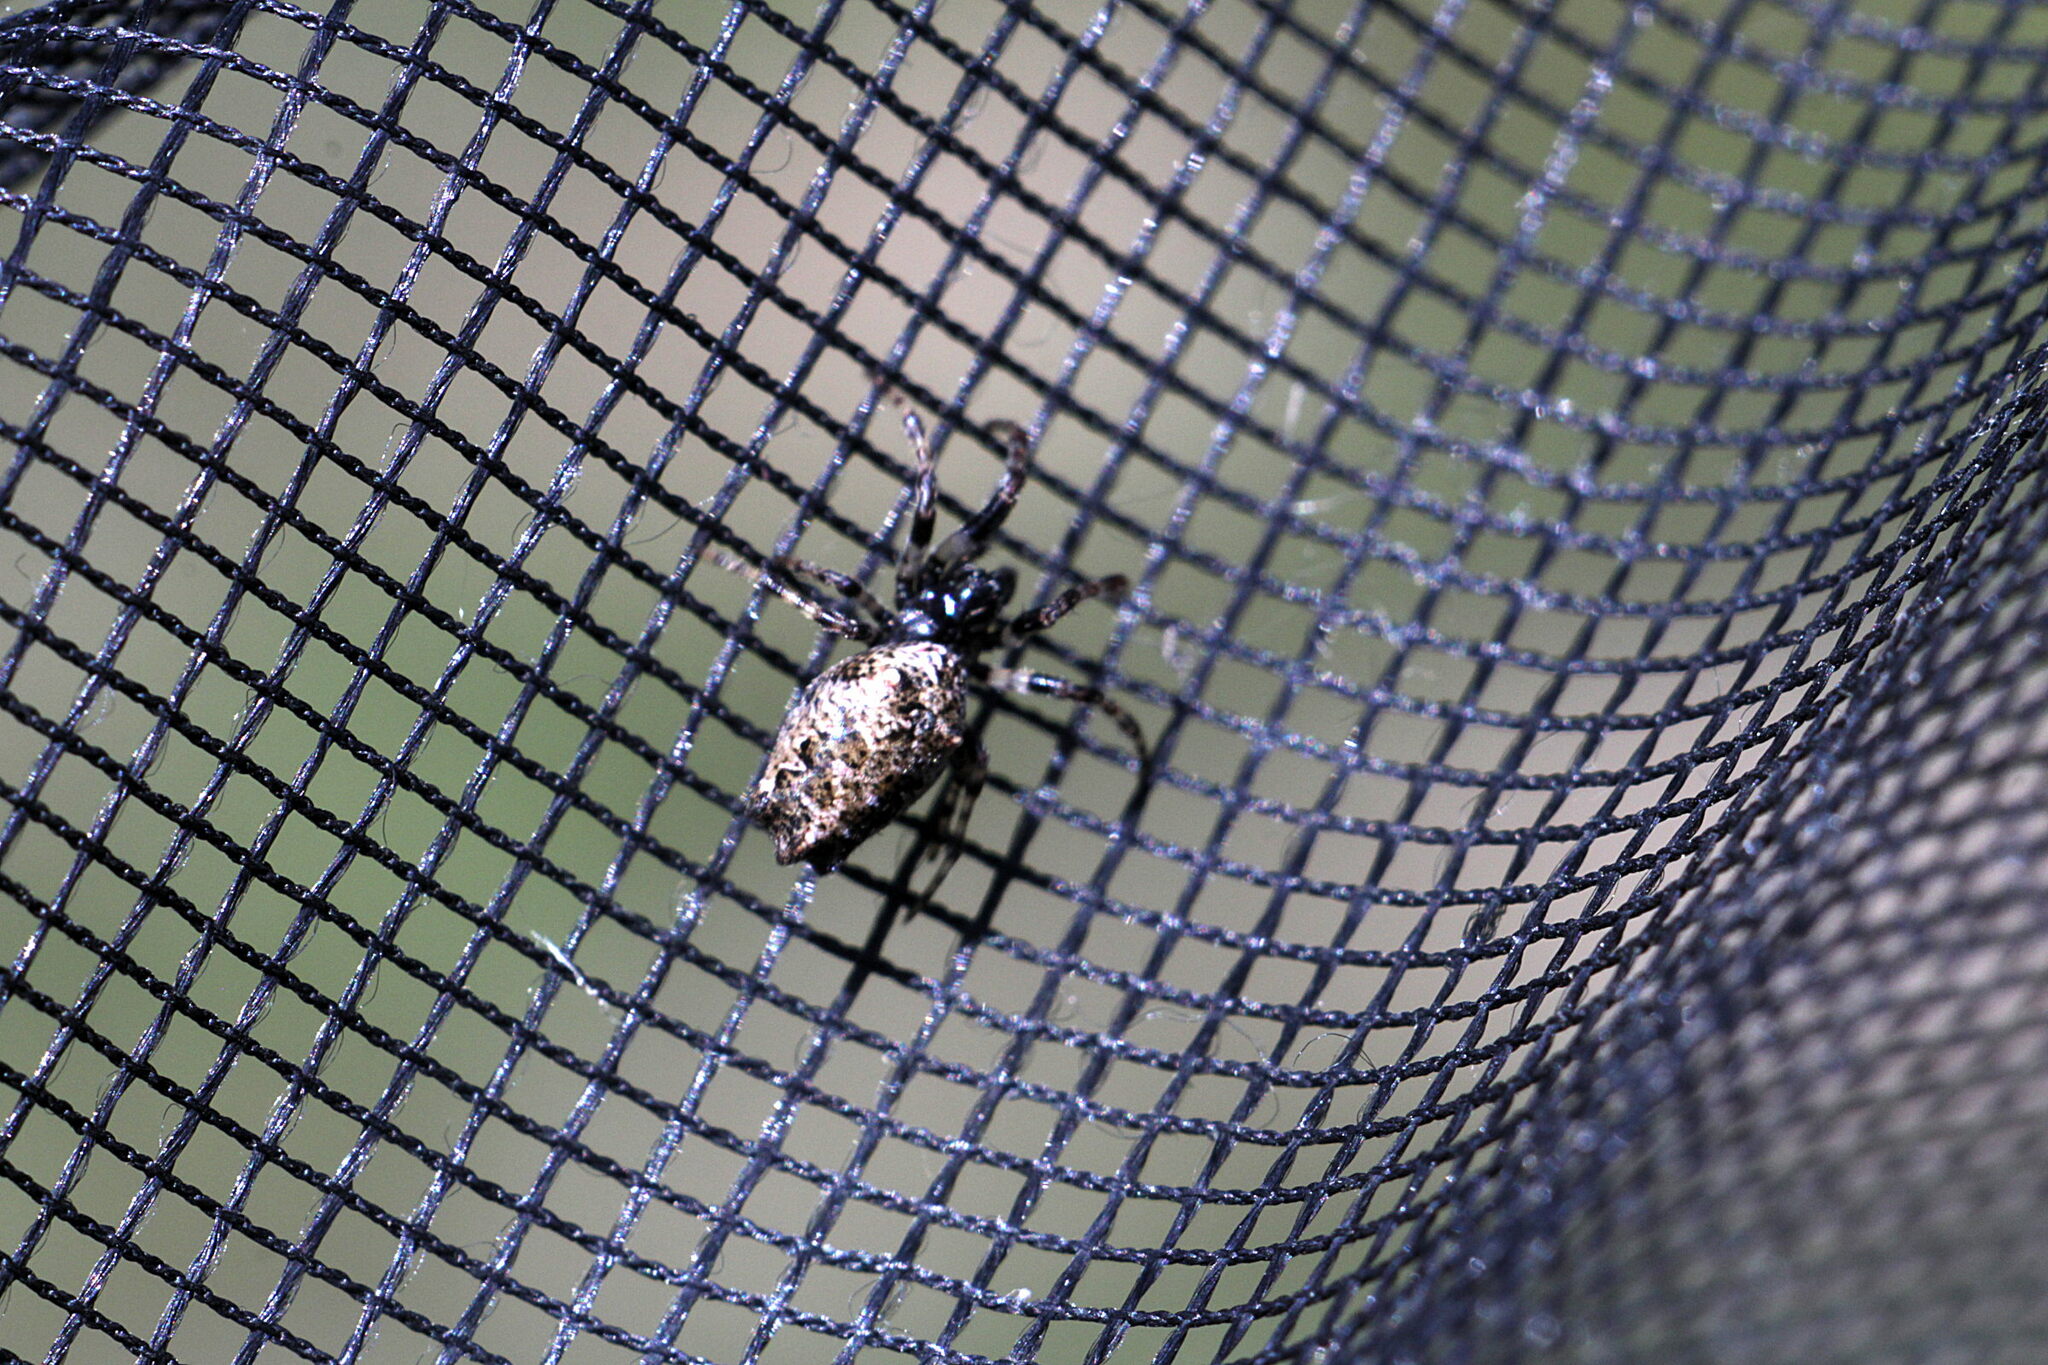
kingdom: Animalia
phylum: Arthropoda
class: Arachnida
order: Araneae
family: Araneidae
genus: Cyclosa
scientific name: Cyclosa oculata
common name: Trashline orbweaver
